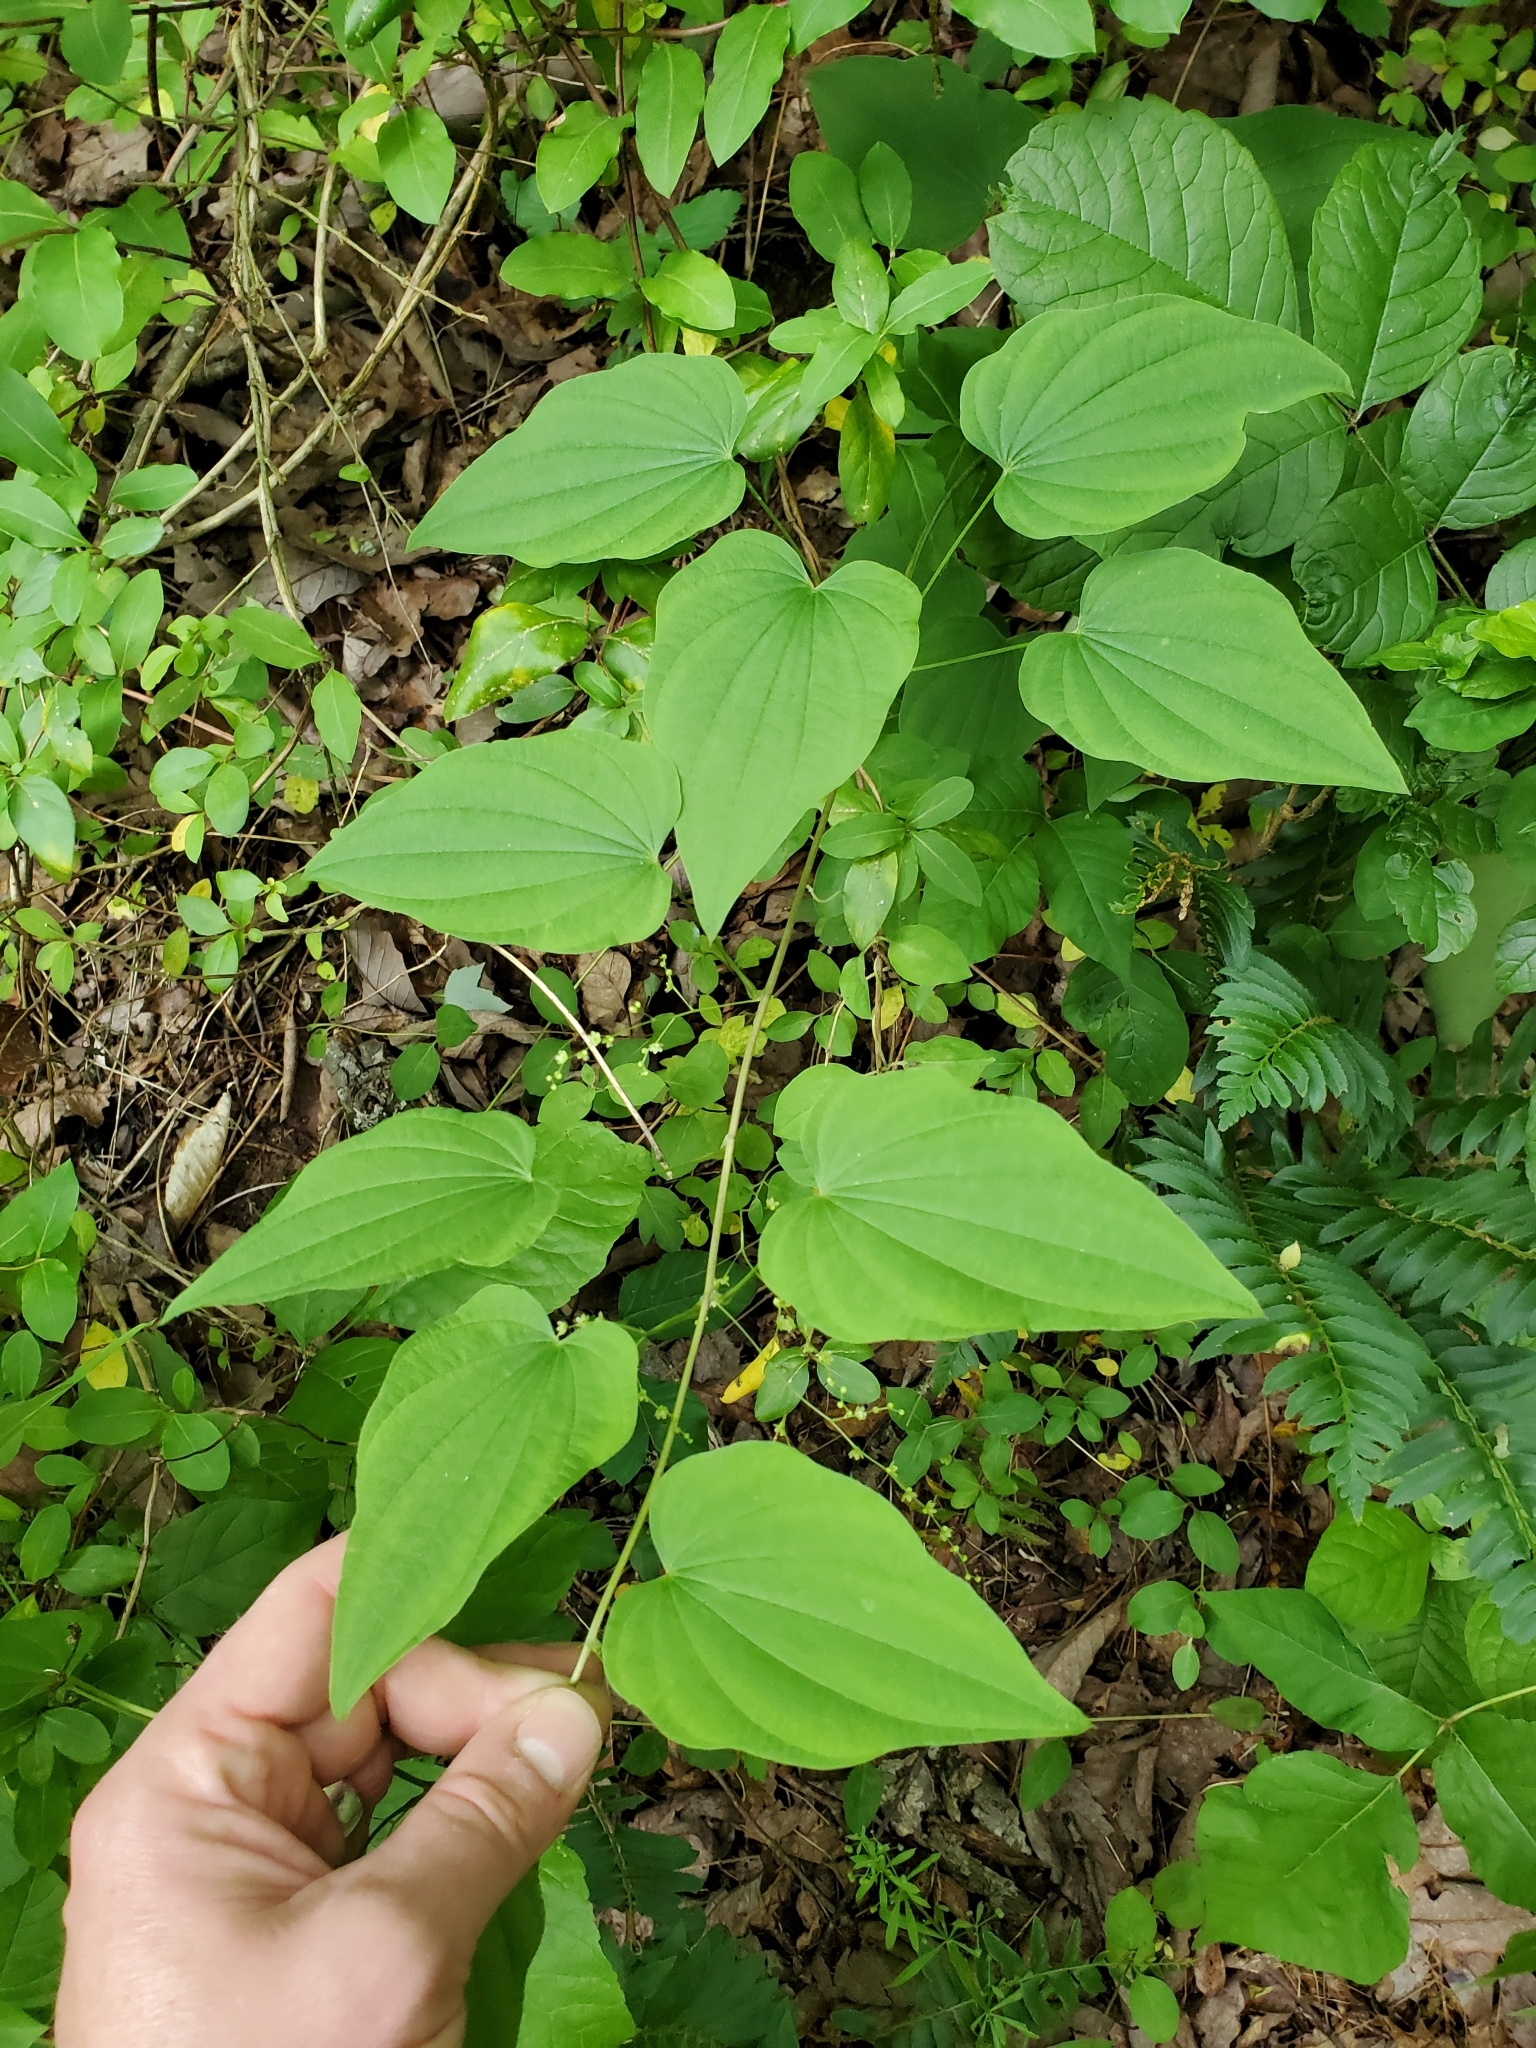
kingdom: Plantae
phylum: Tracheophyta
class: Liliopsida
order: Dioscoreales
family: Dioscoreaceae
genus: Dioscorea
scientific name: Dioscorea villosa
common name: Wild yam
